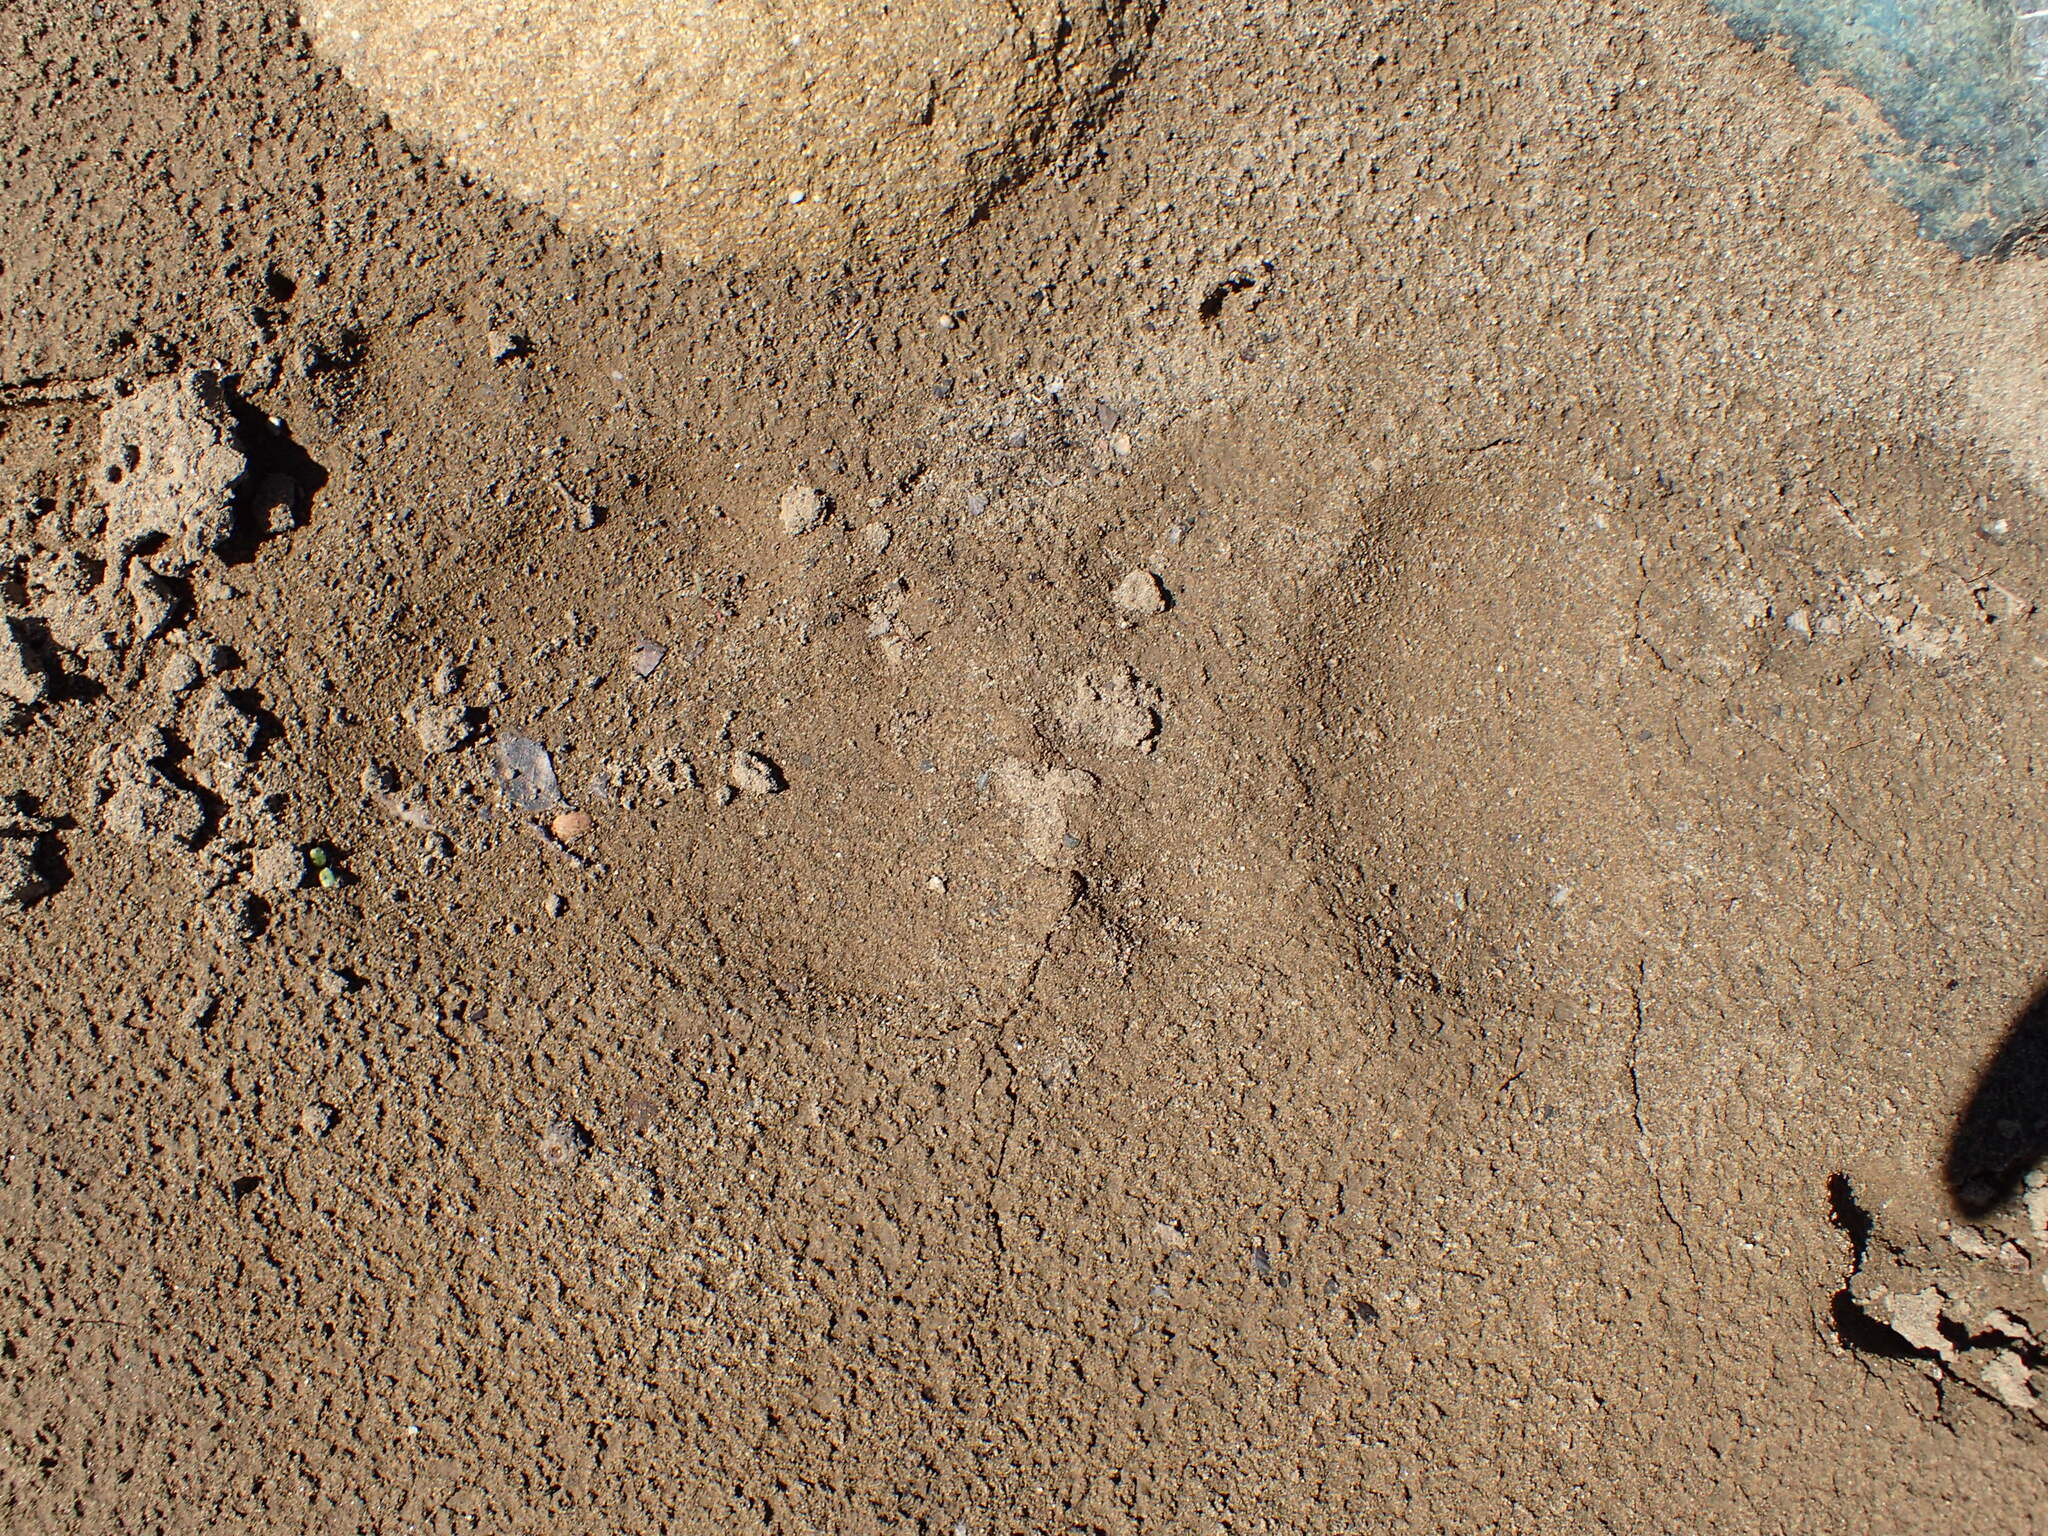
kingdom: Animalia
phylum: Chordata
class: Mammalia
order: Carnivora
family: Ursidae
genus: Ursus
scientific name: Ursus americanus
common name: American black bear
